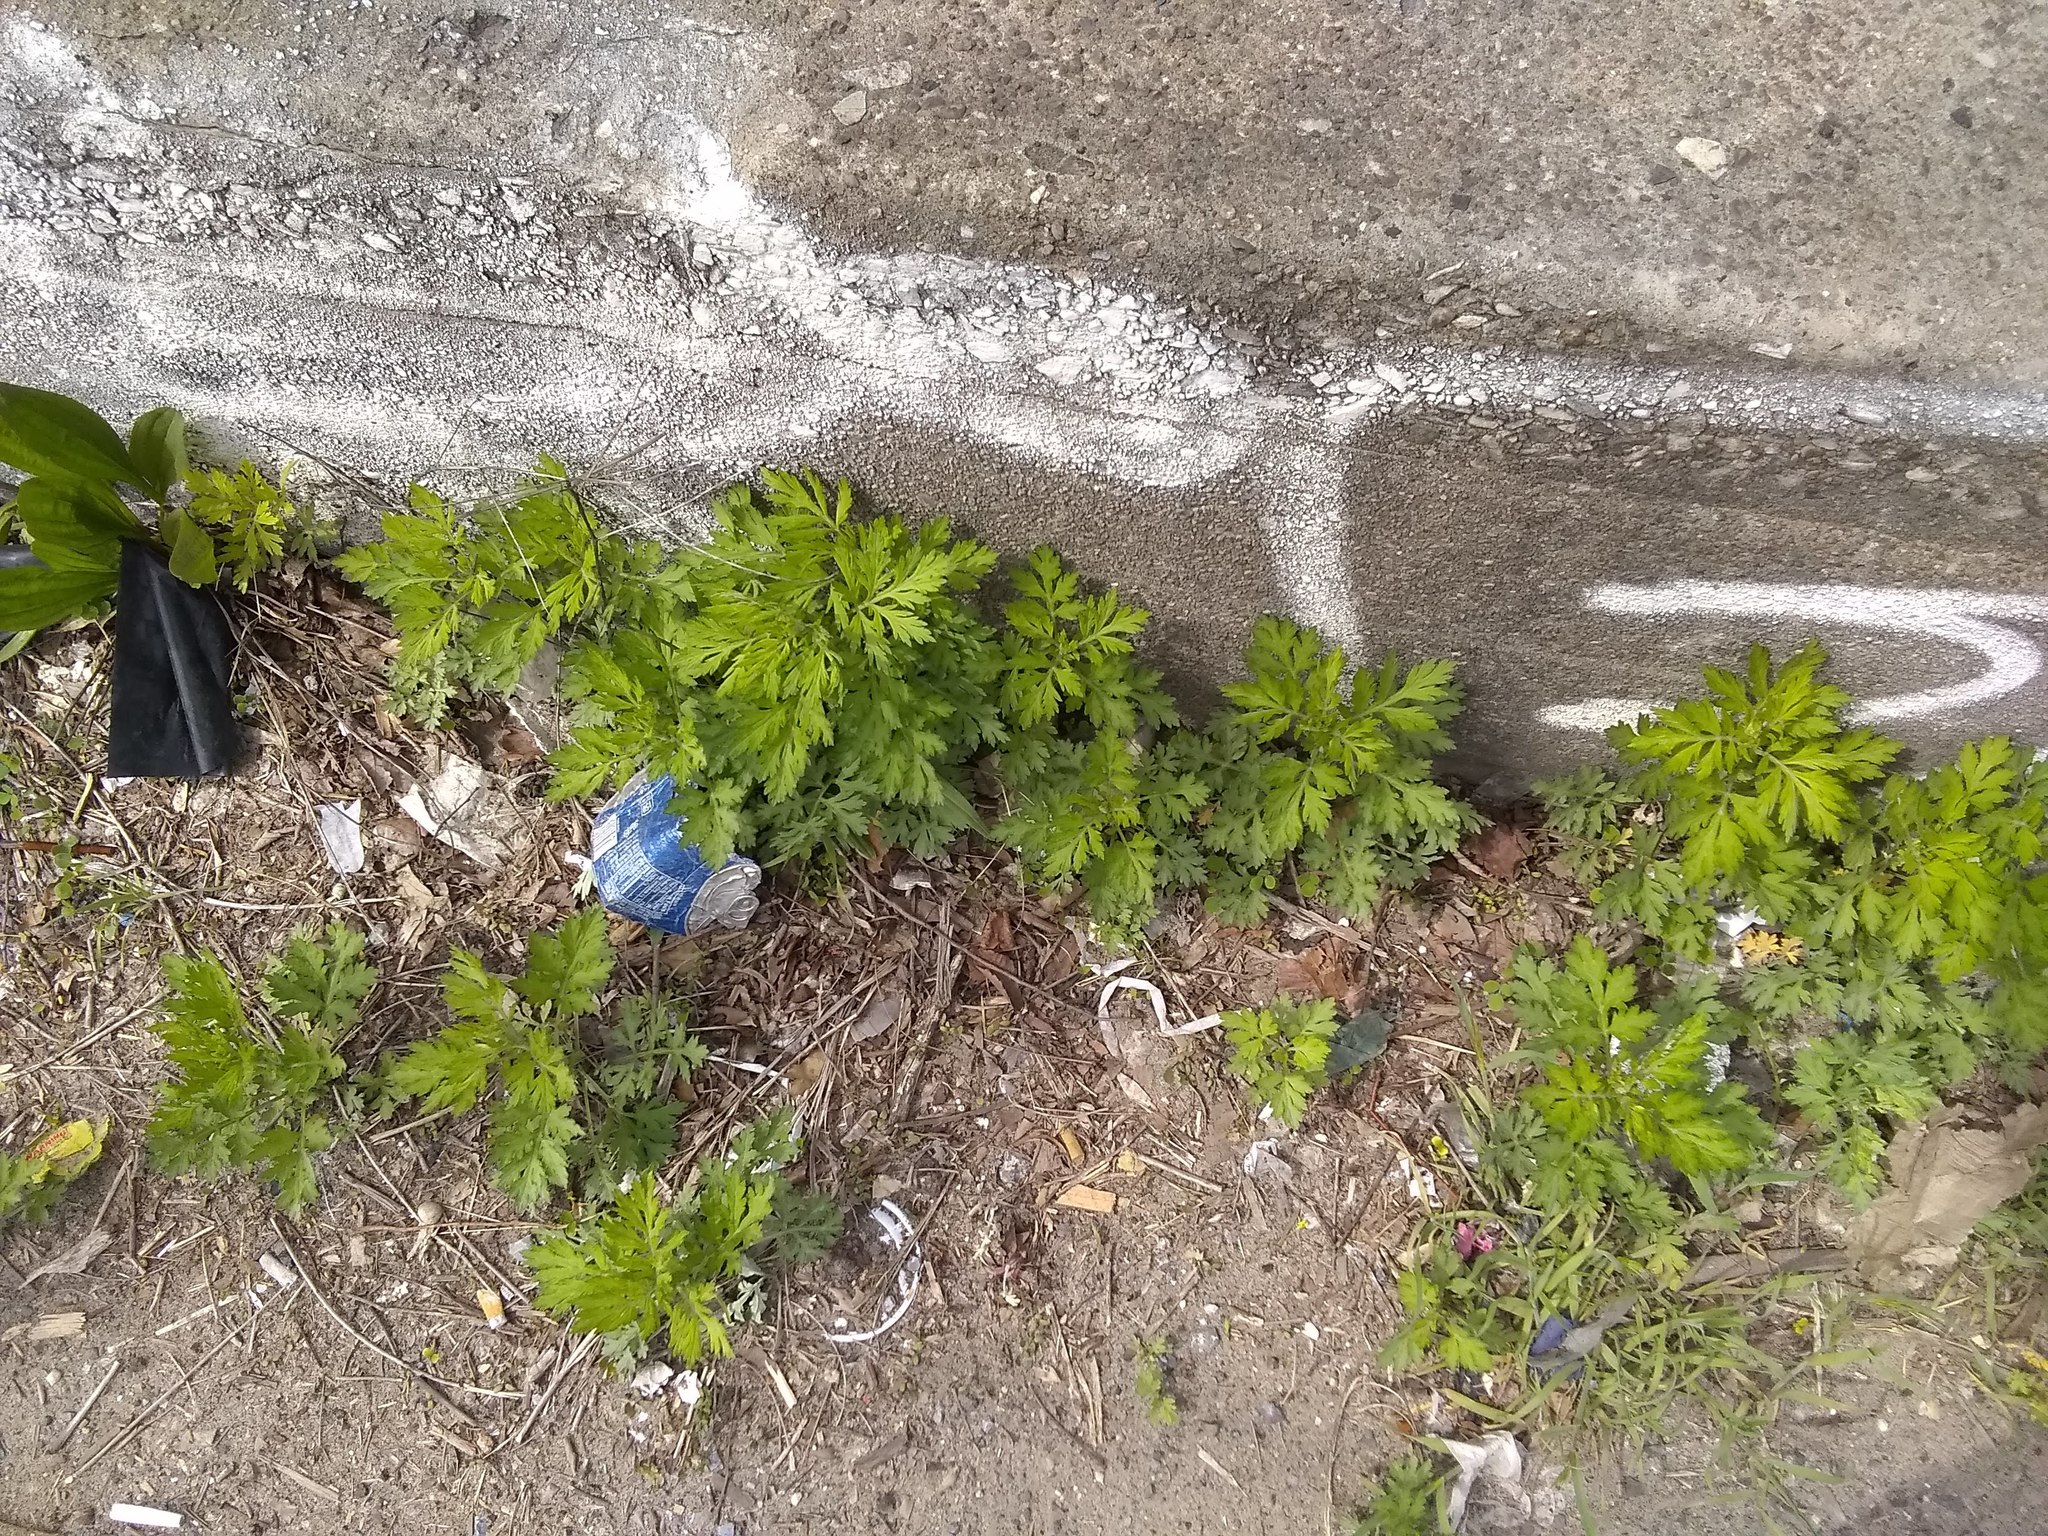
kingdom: Plantae
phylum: Tracheophyta
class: Magnoliopsida
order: Asterales
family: Asteraceae
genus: Artemisia
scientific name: Artemisia vulgaris
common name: Mugwort
